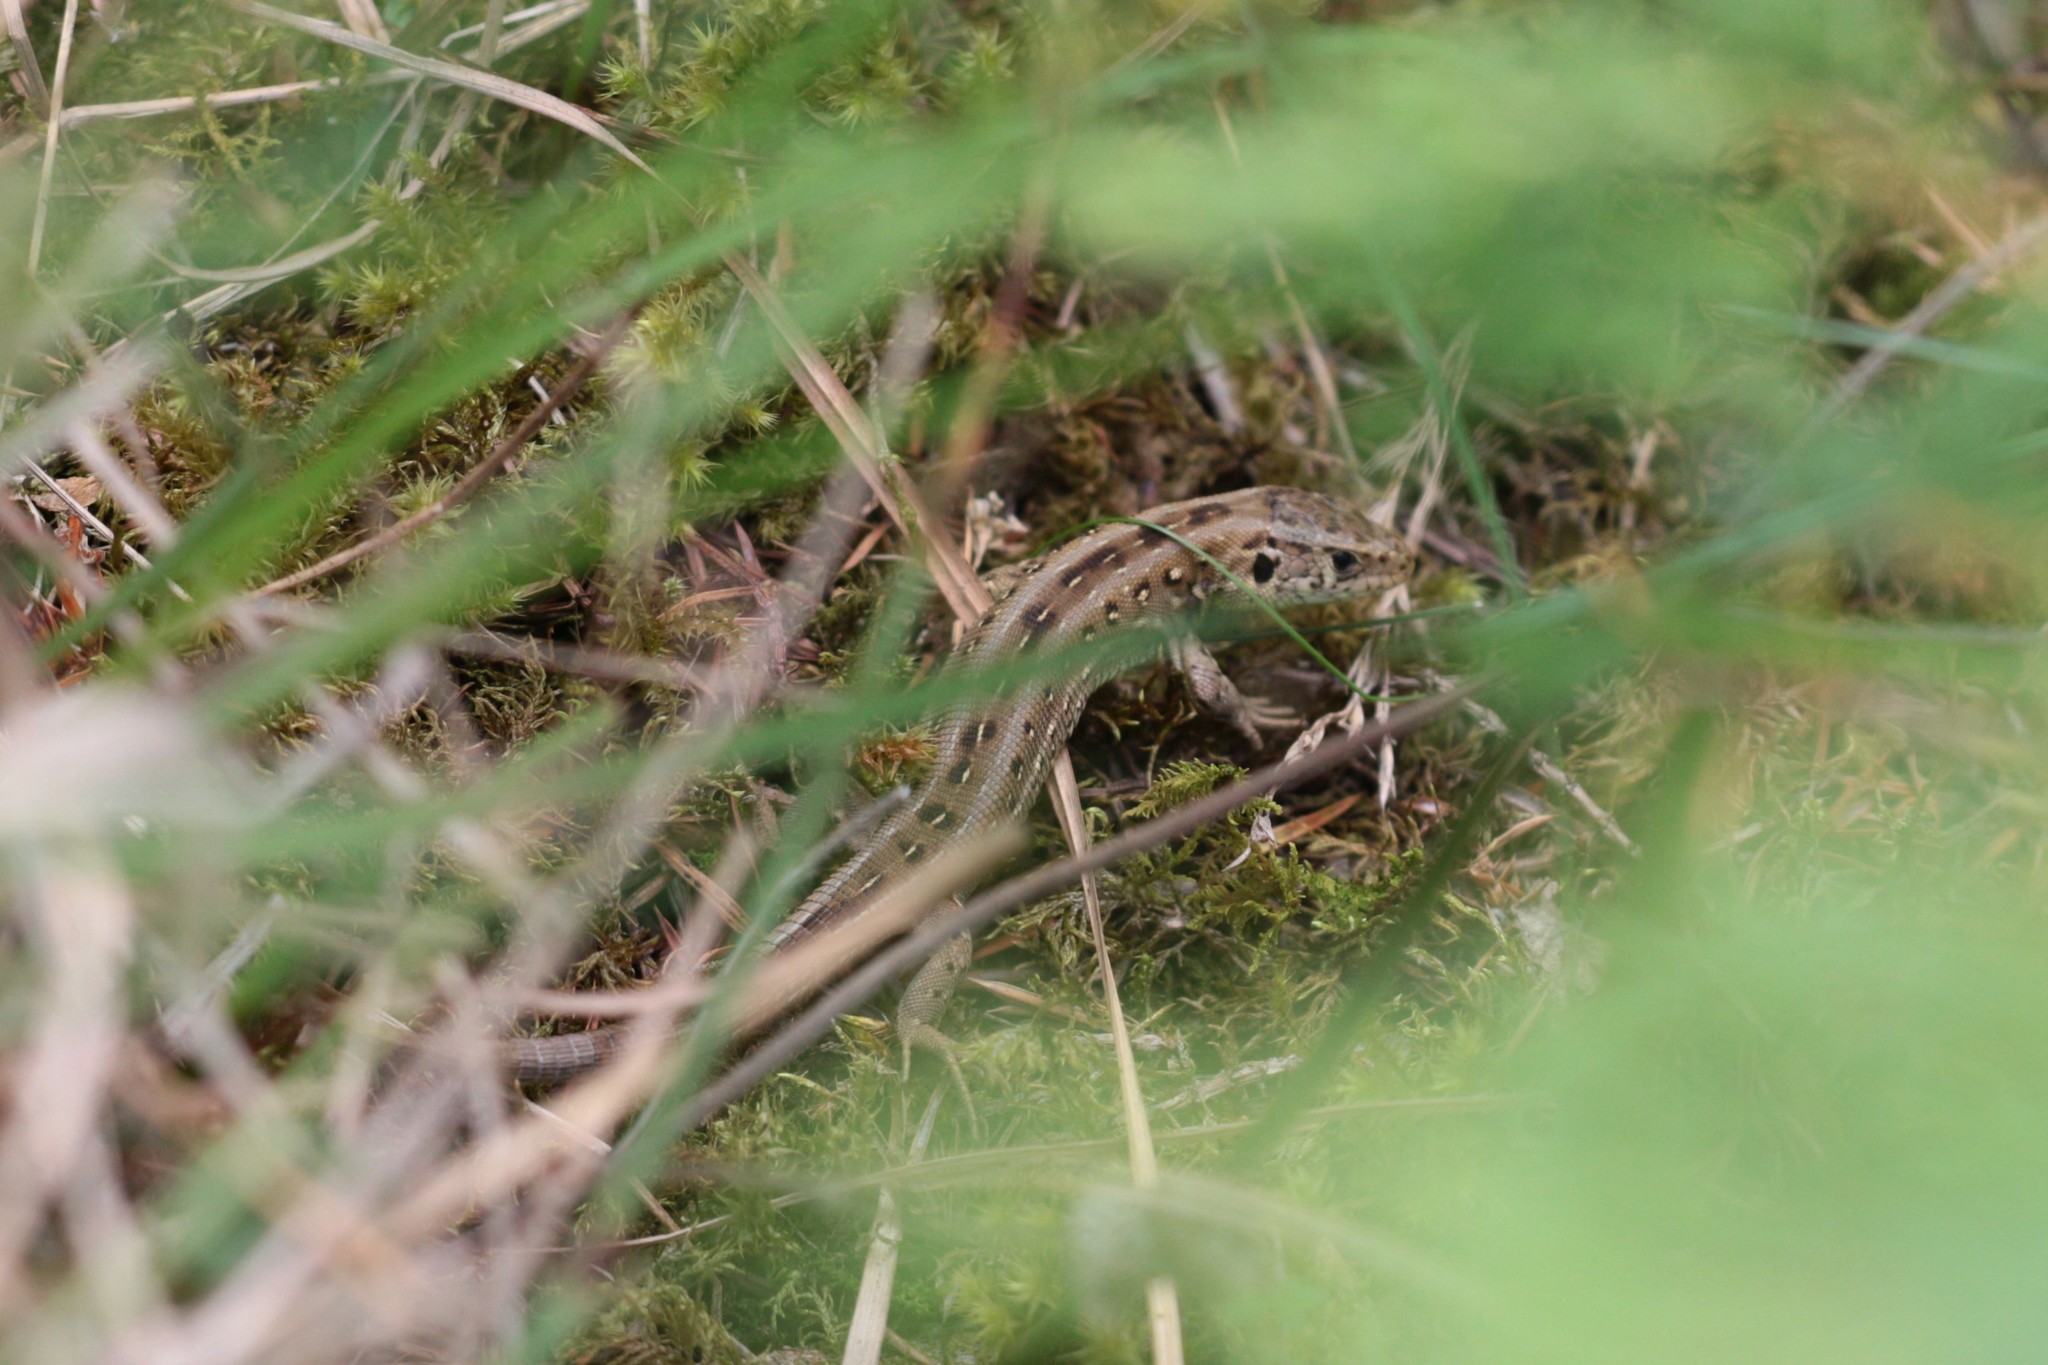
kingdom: Animalia
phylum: Chordata
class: Squamata
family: Lacertidae
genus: Lacerta
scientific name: Lacerta agilis
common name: Sand lizard
